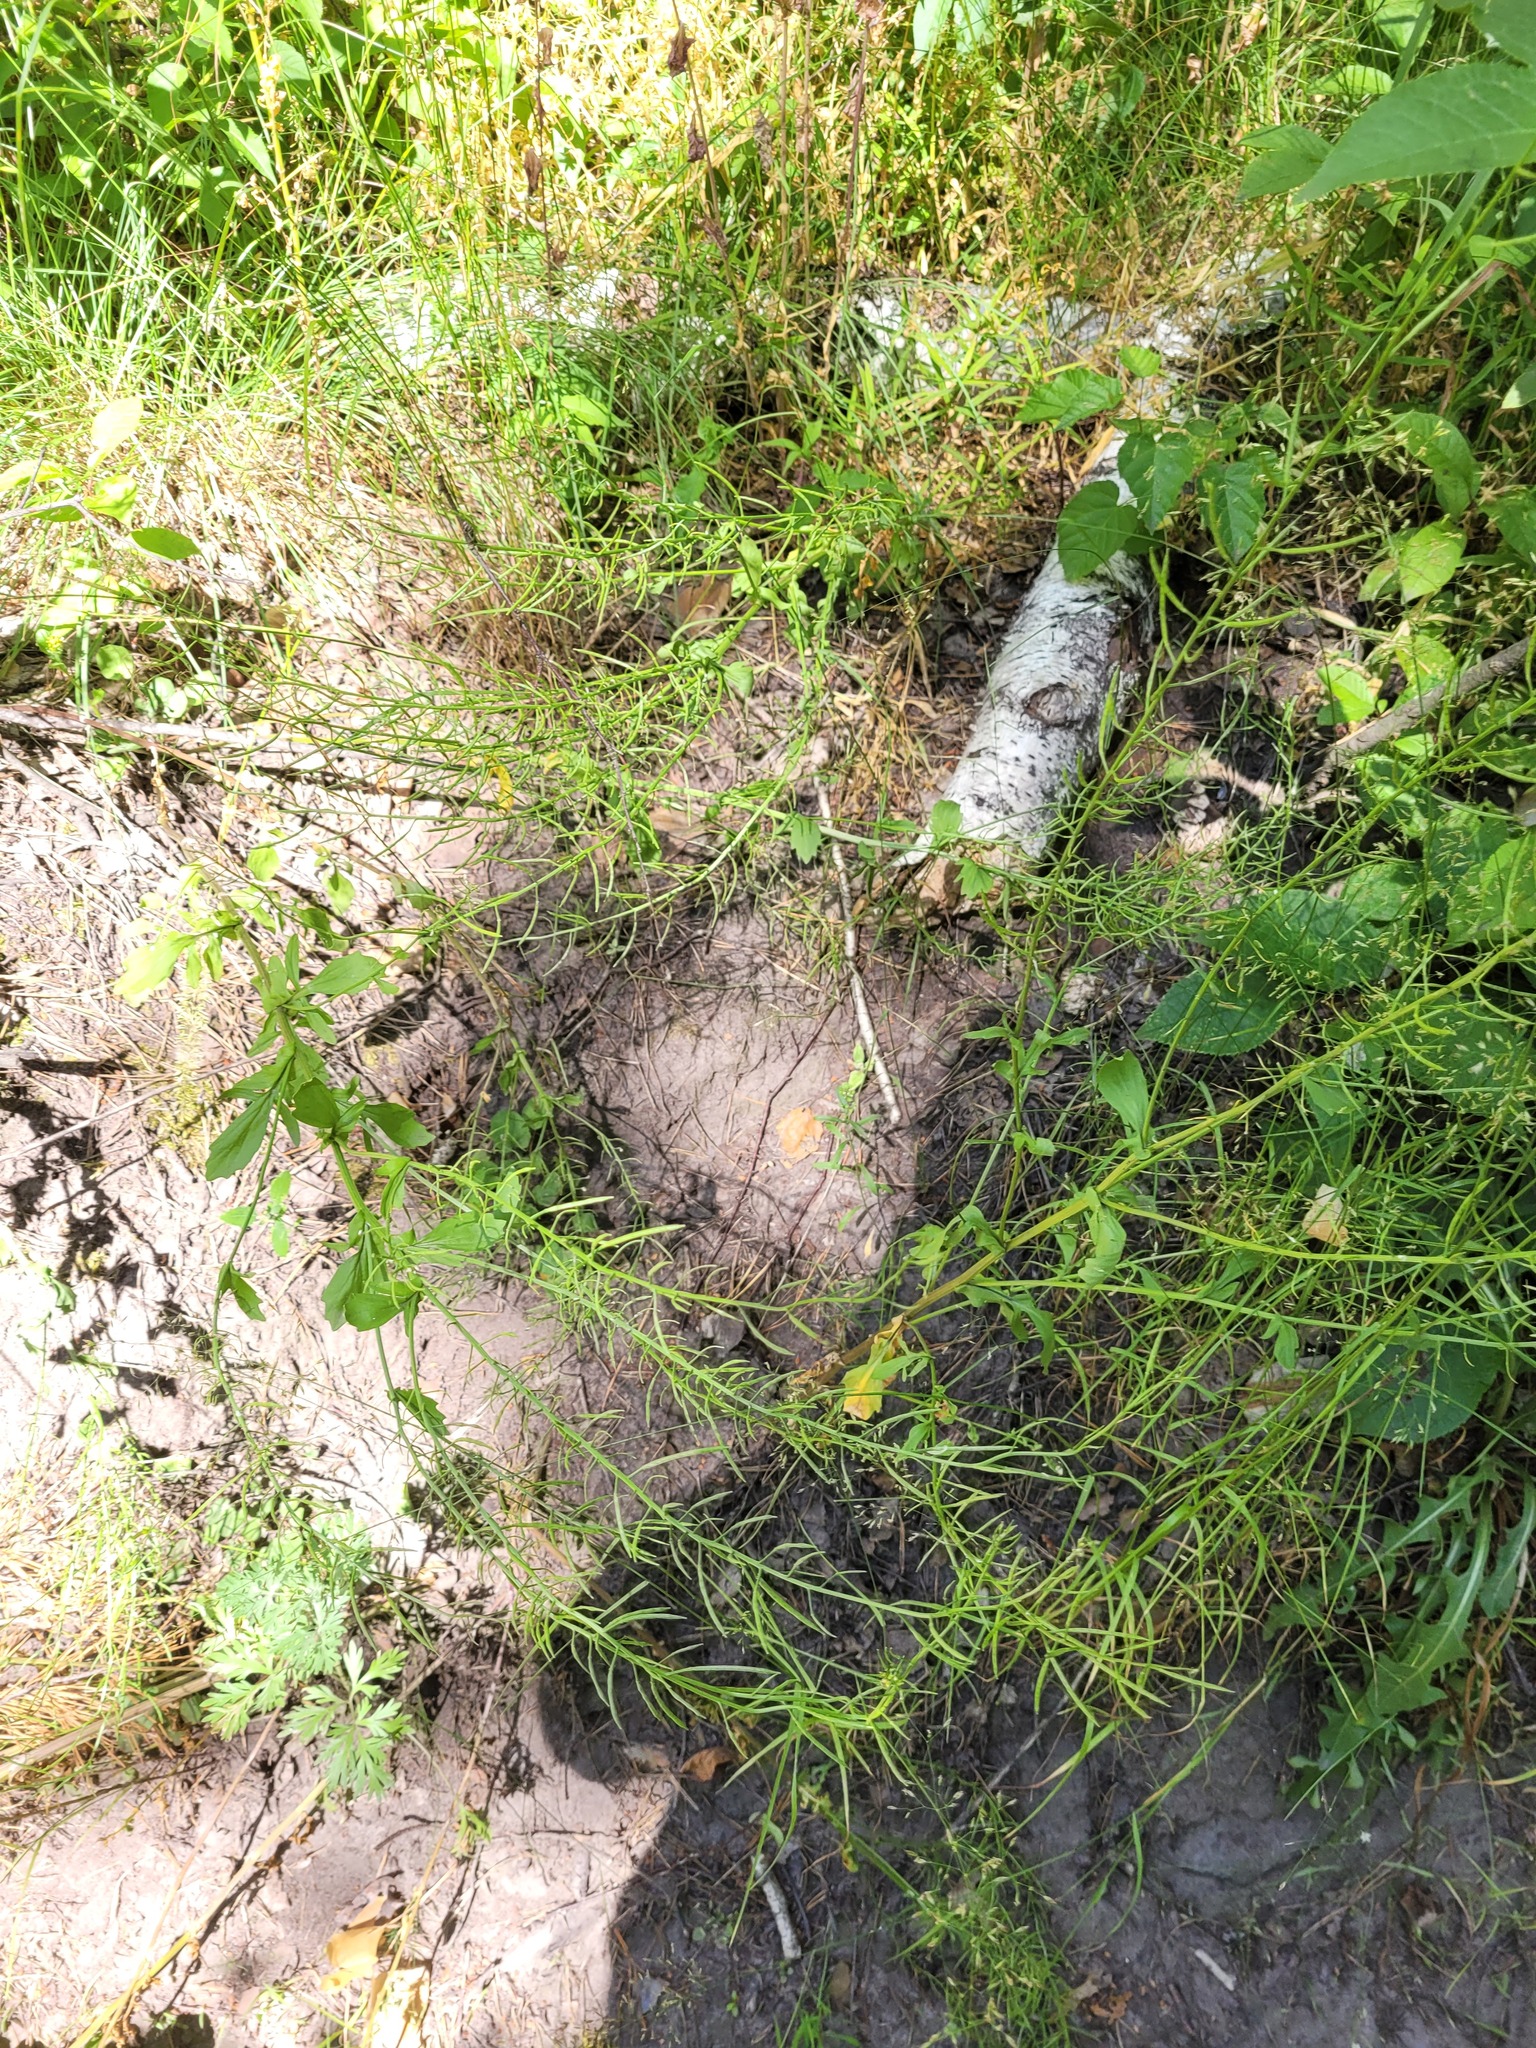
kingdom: Plantae
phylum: Tracheophyta
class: Magnoliopsida
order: Brassicales
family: Brassicaceae
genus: Barbarea
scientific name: Barbarea vulgaris
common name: Cressy-greens
